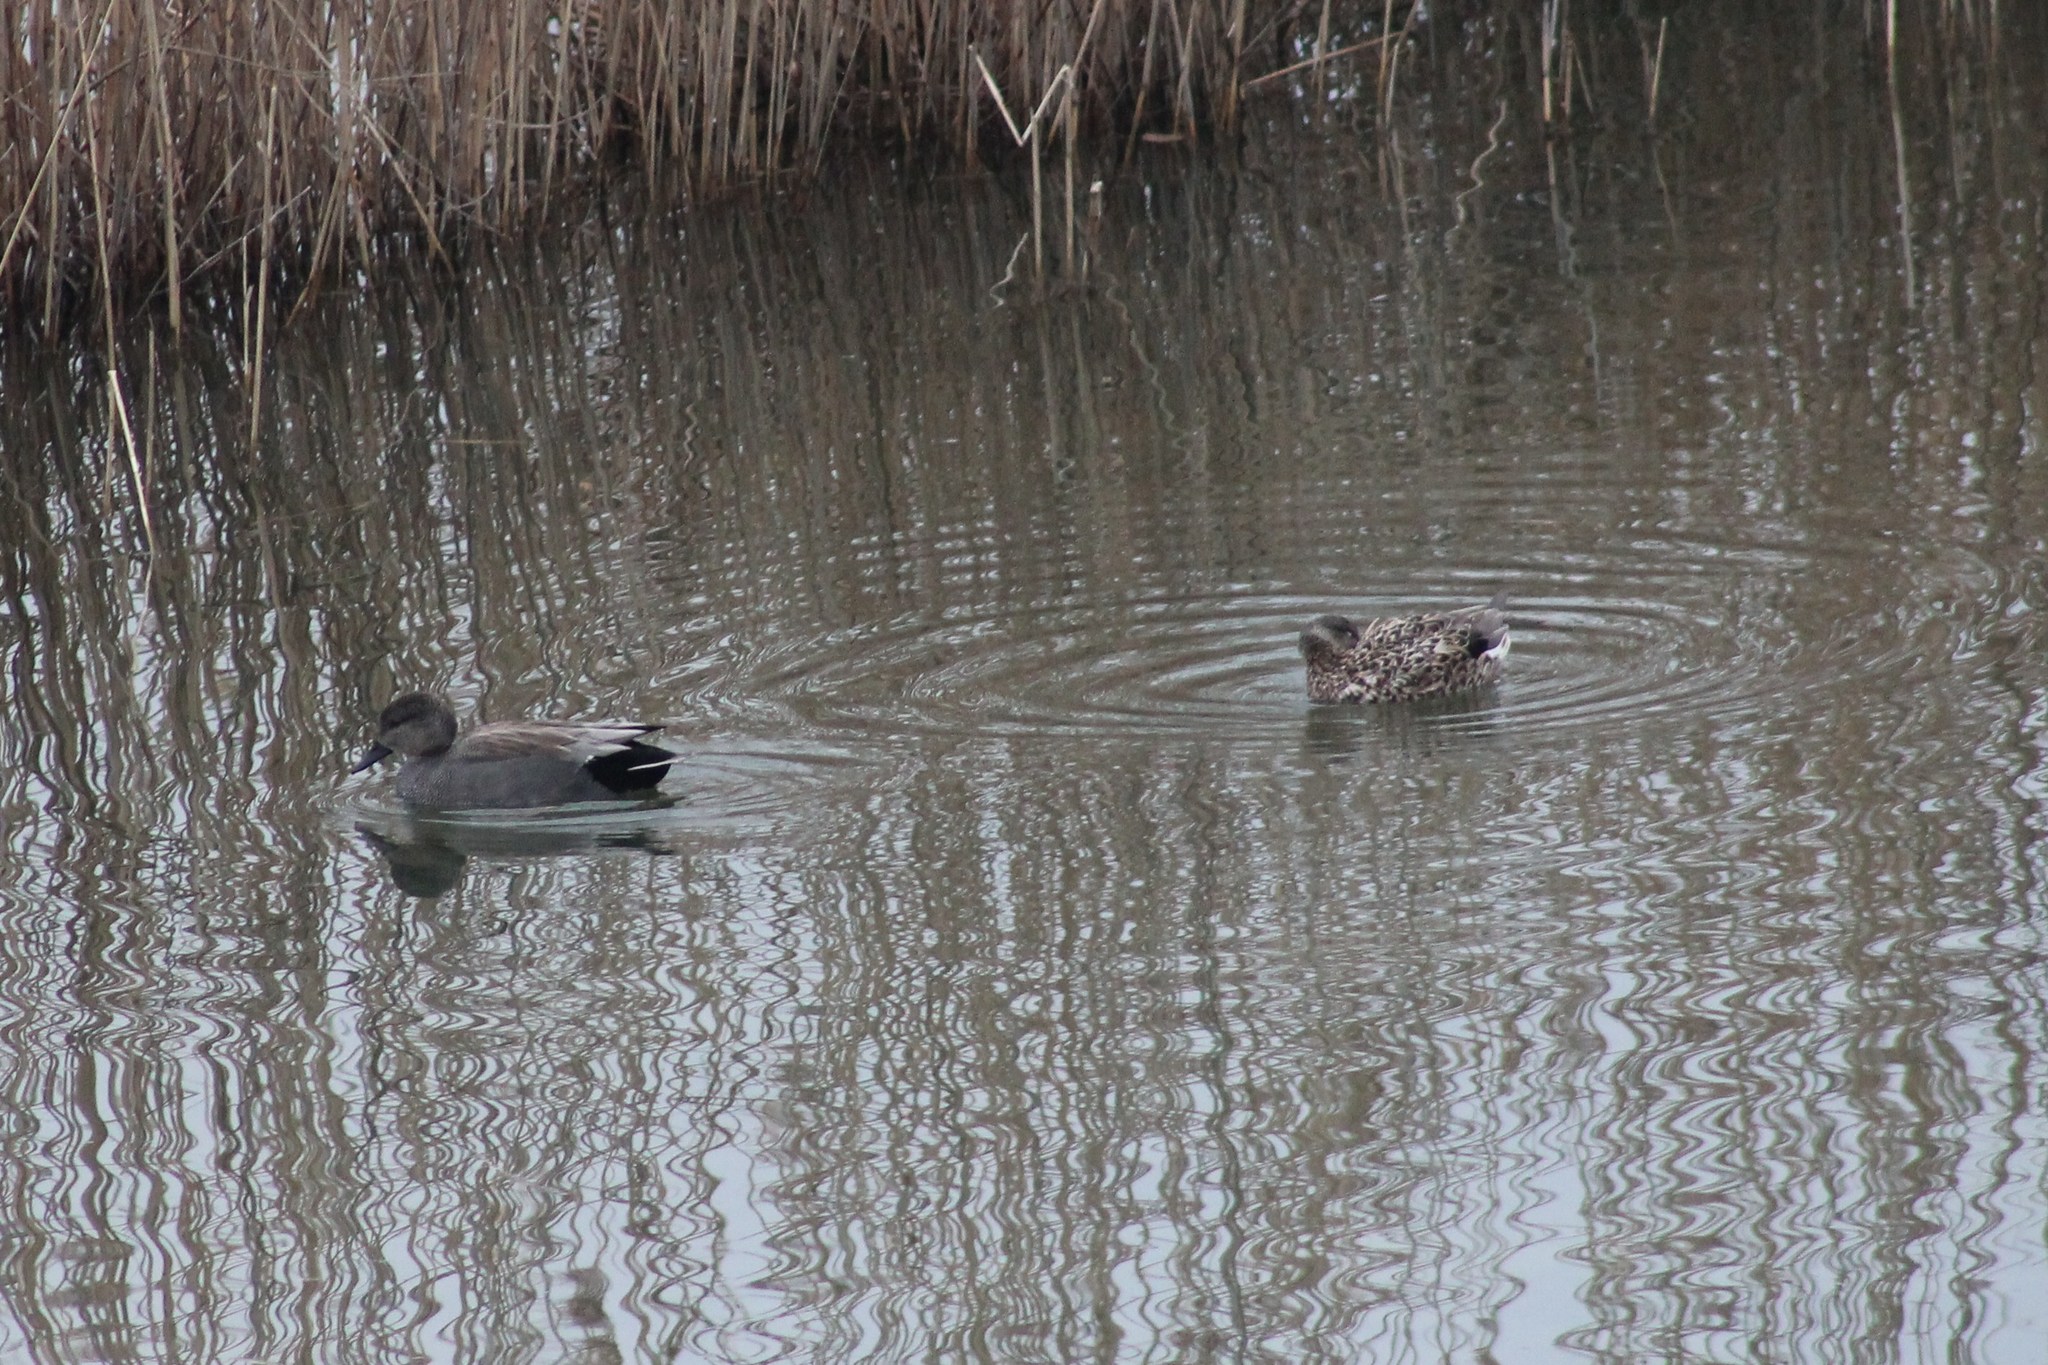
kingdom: Animalia
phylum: Chordata
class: Aves
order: Anseriformes
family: Anatidae
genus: Mareca
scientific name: Mareca strepera
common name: Gadwall
